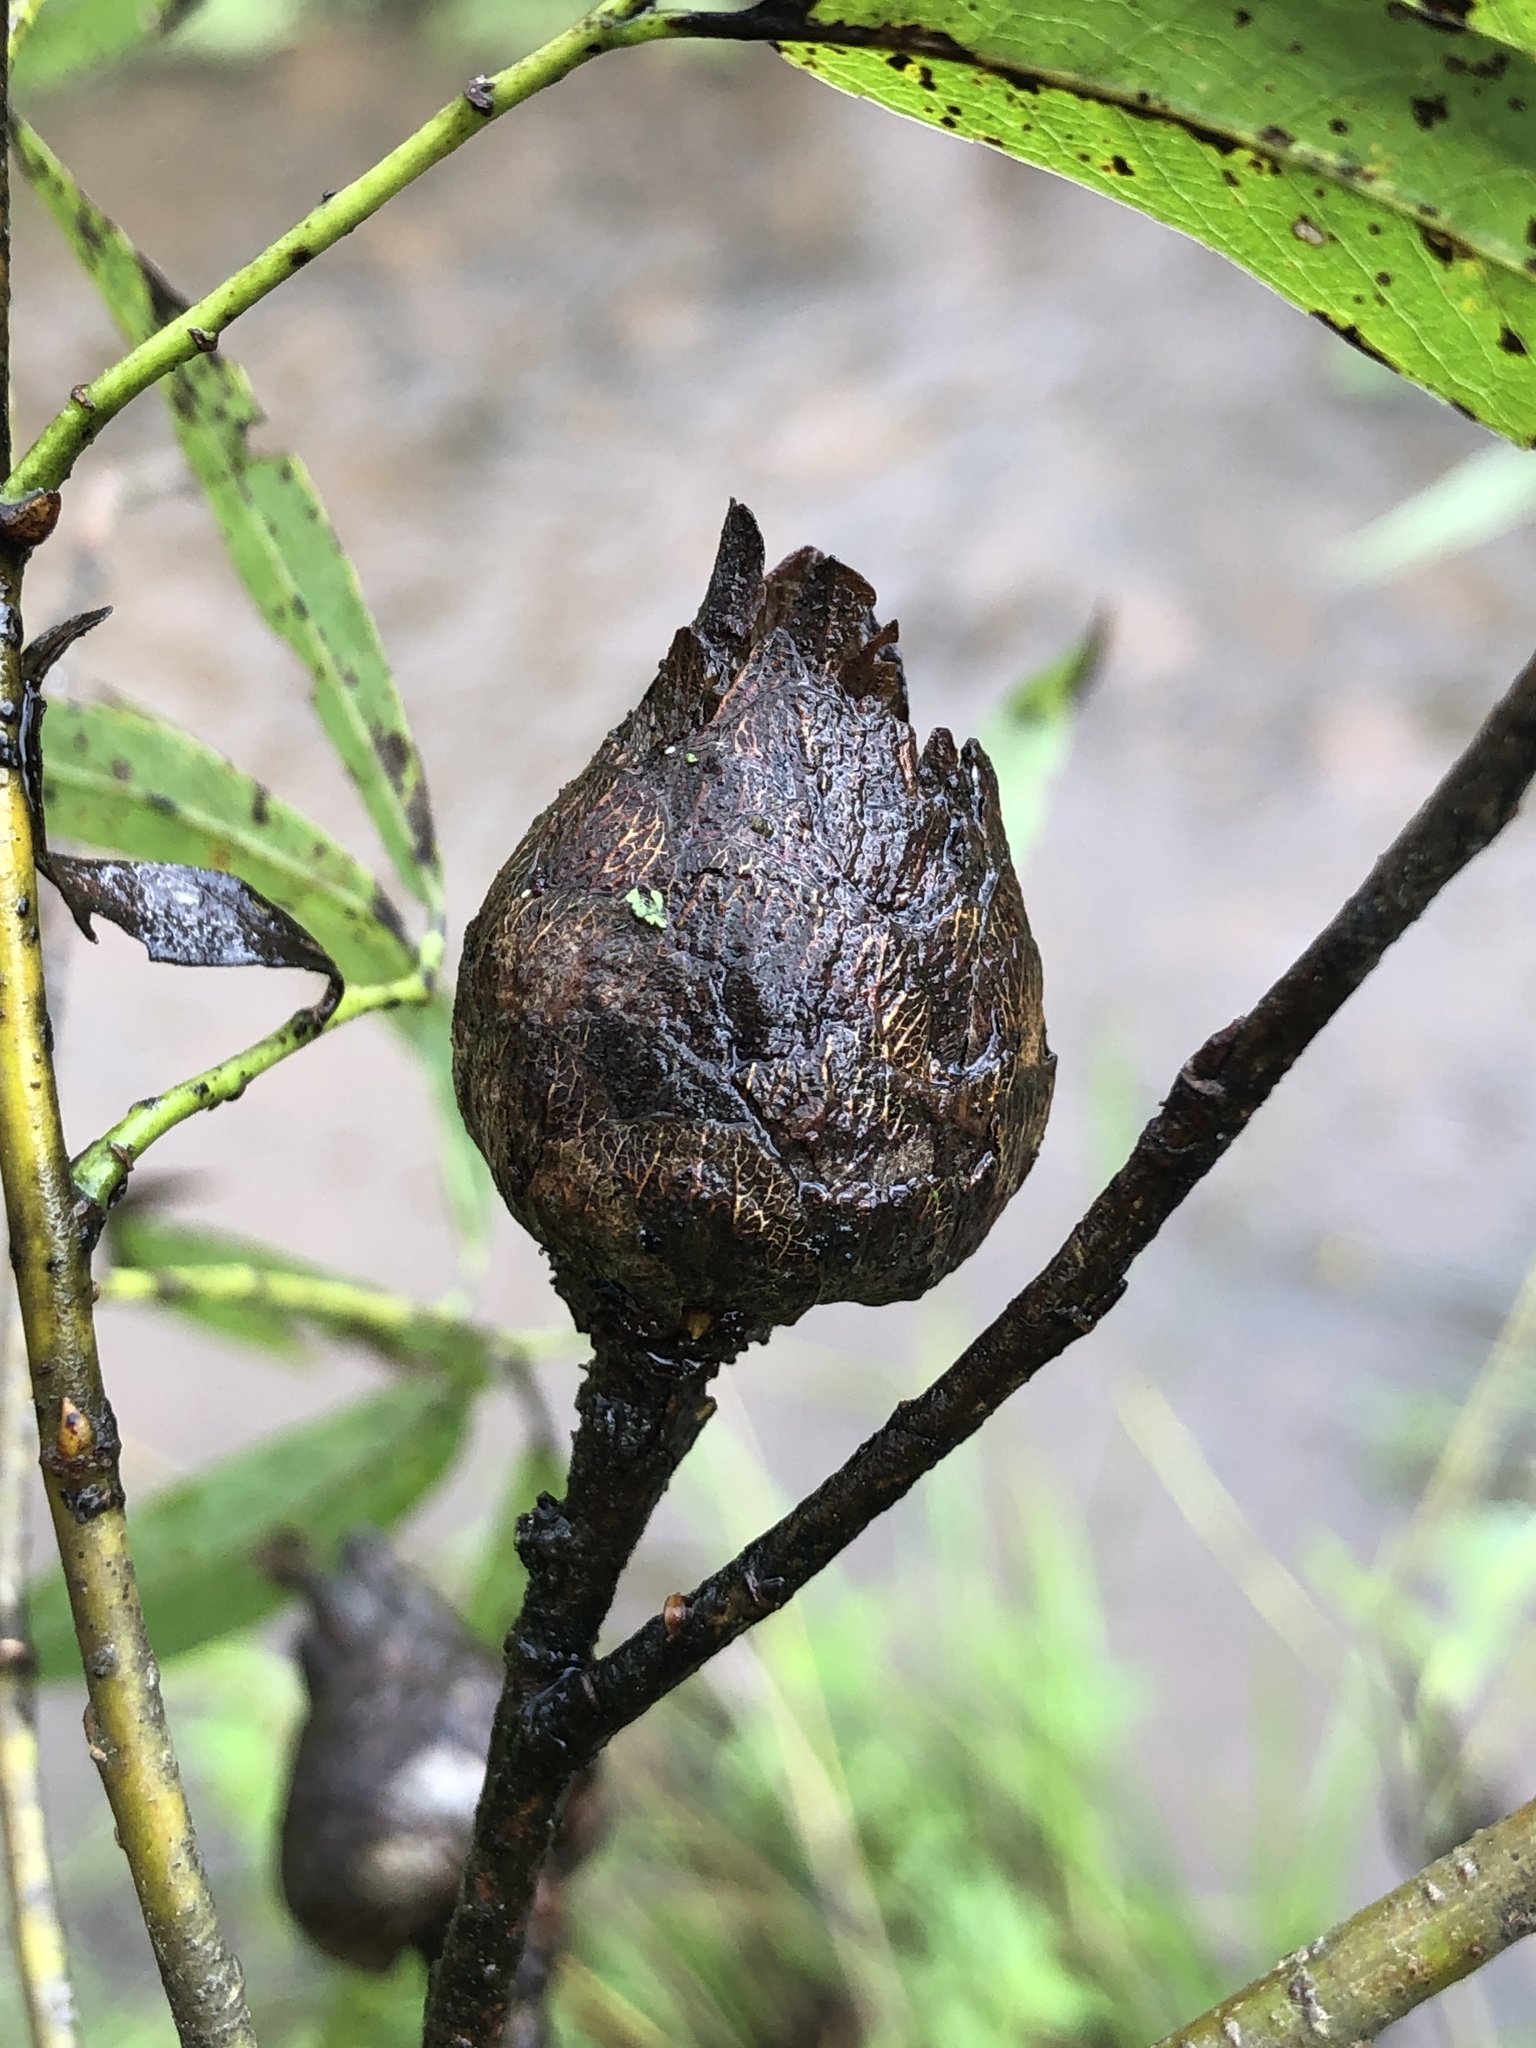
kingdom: Animalia
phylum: Arthropoda
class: Insecta
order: Diptera
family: Cecidomyiidae
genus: Rabdophaga
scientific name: Rabdophaga strobiloides
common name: Willow pinecone gall midge
